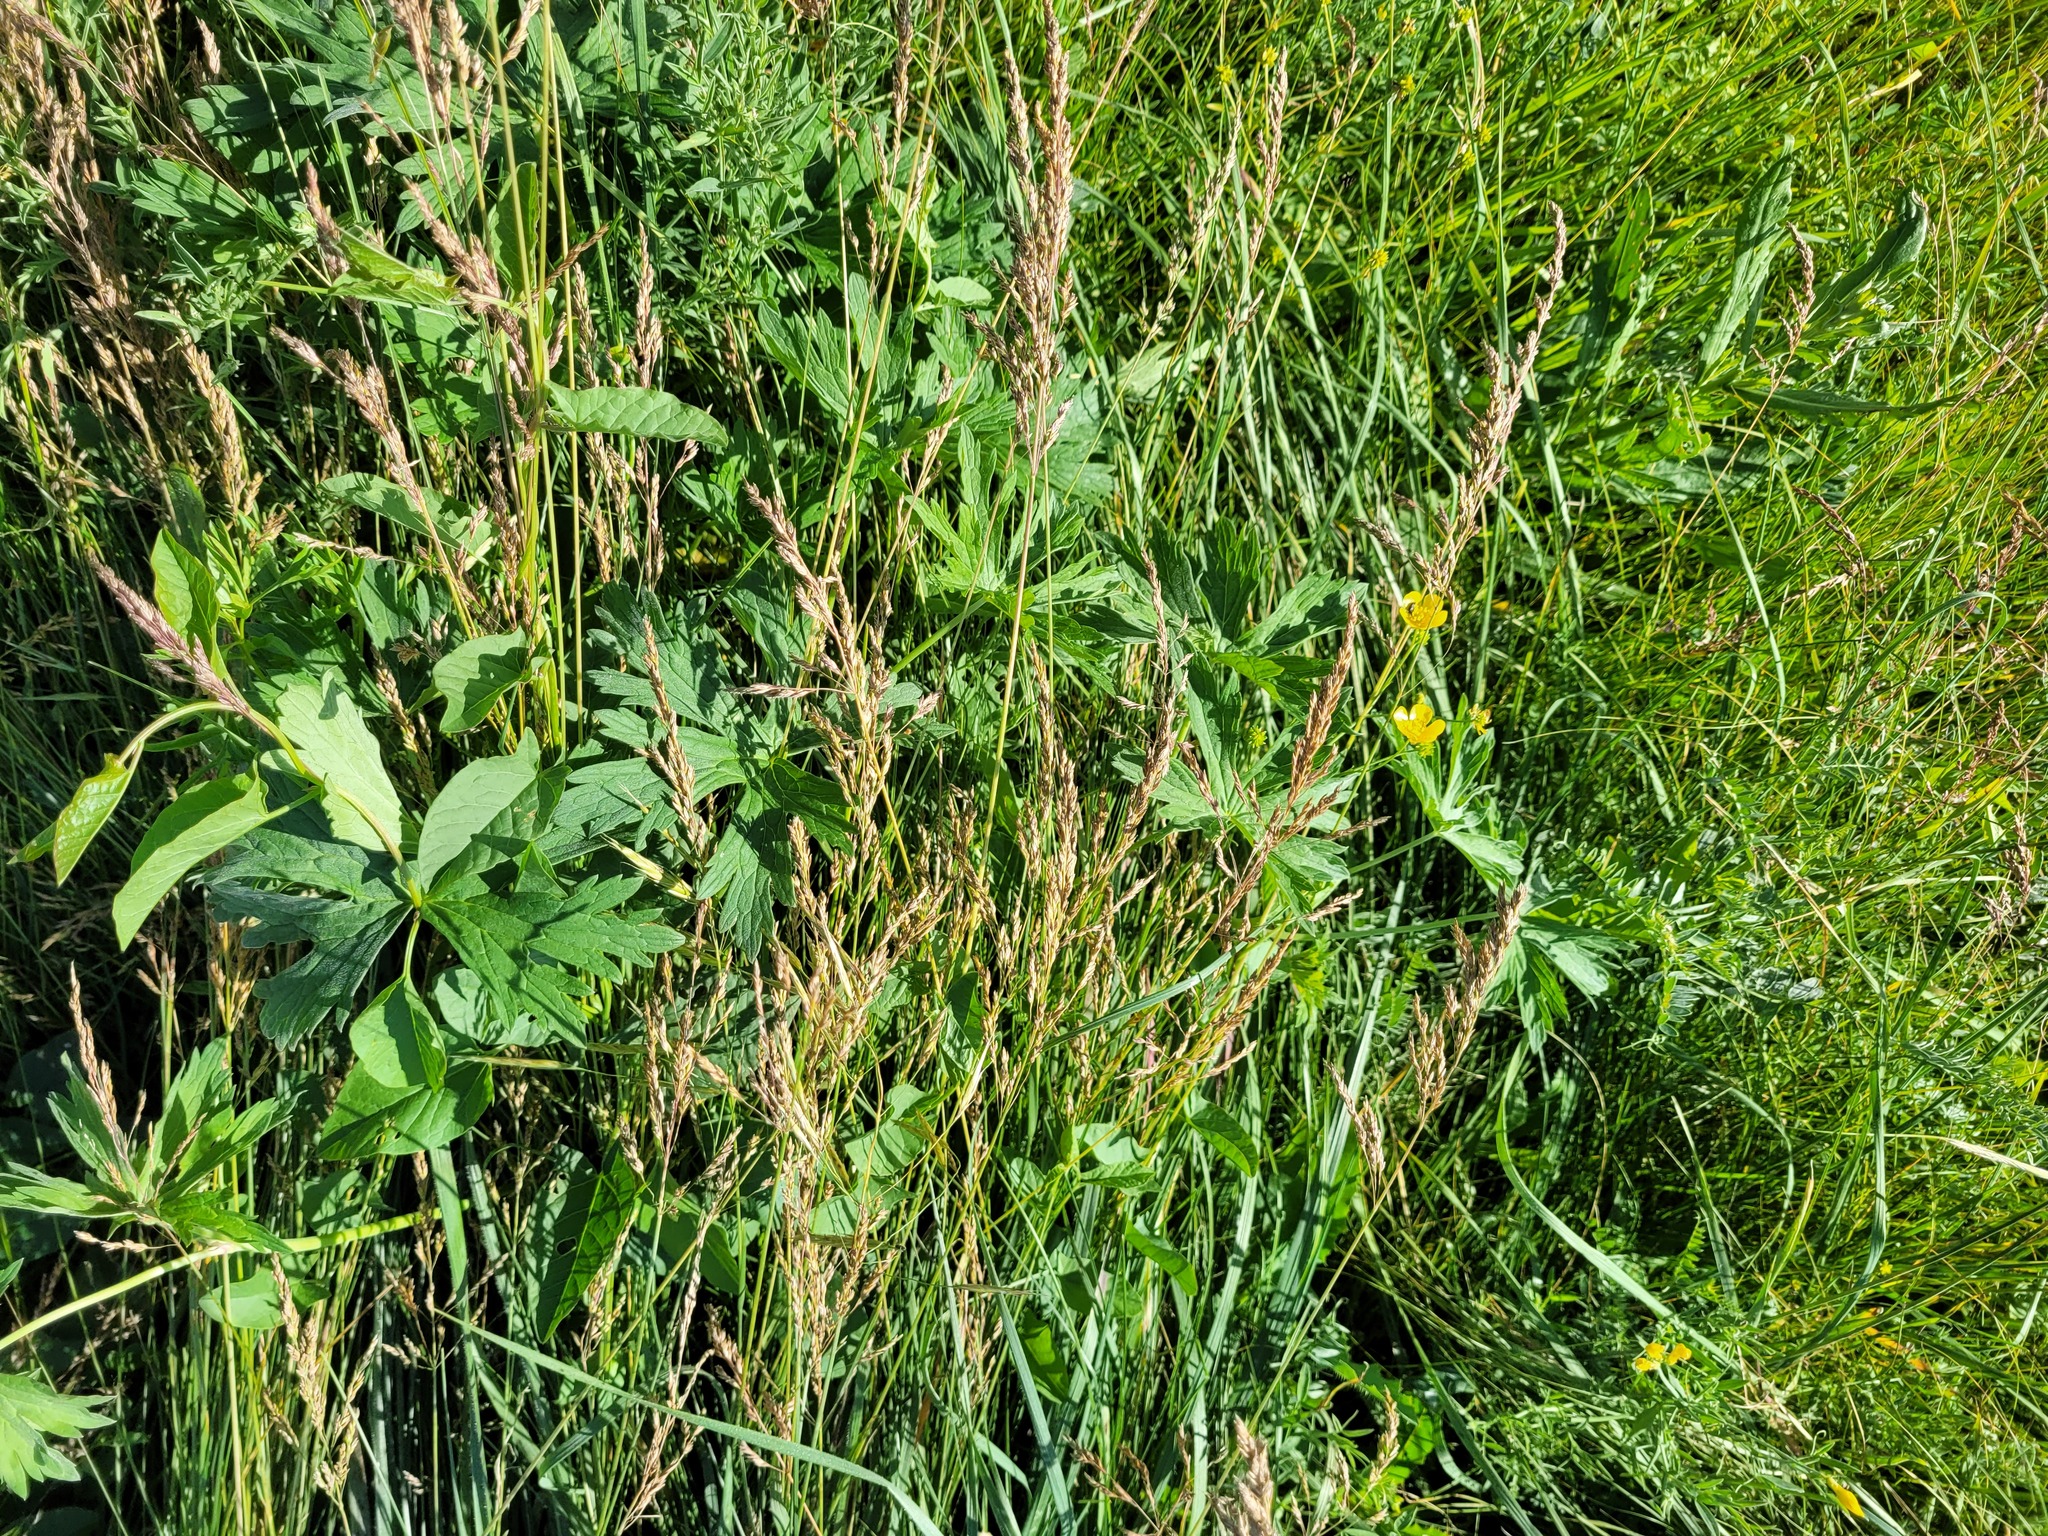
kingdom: Plantae
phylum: Tracheophyta
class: Magnoliopsida
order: Geraniales
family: Geraniaceae
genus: Geranium
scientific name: Geranium collinum
